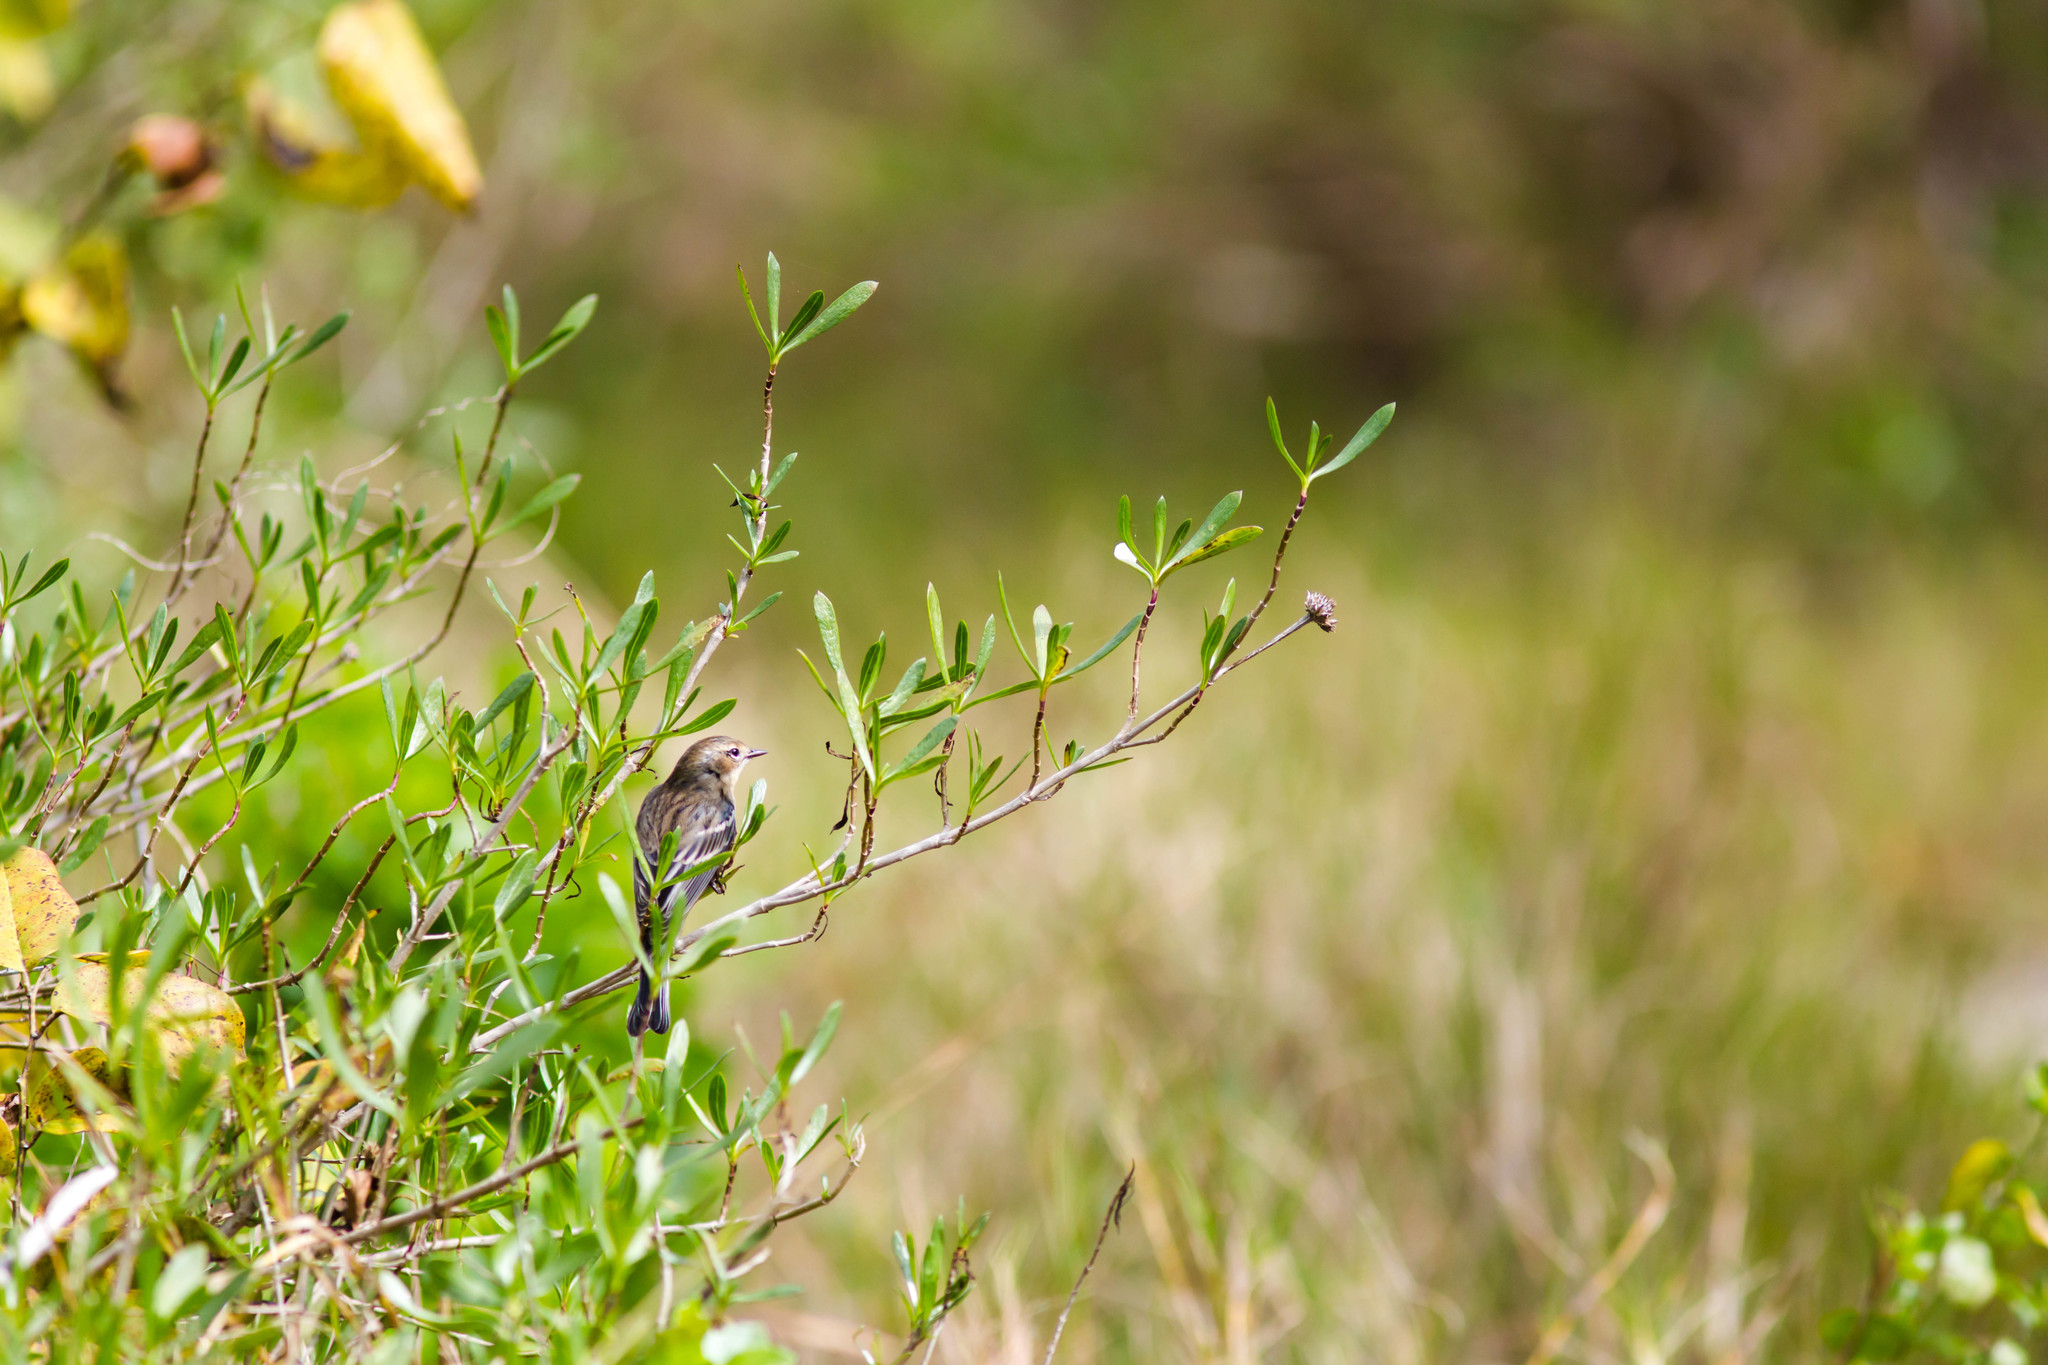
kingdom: Animalia
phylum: Chordata
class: Aves
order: Passeriformes
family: Parulidae
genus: Setophaga
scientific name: Setophaga coronata
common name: Myrtle warbler
